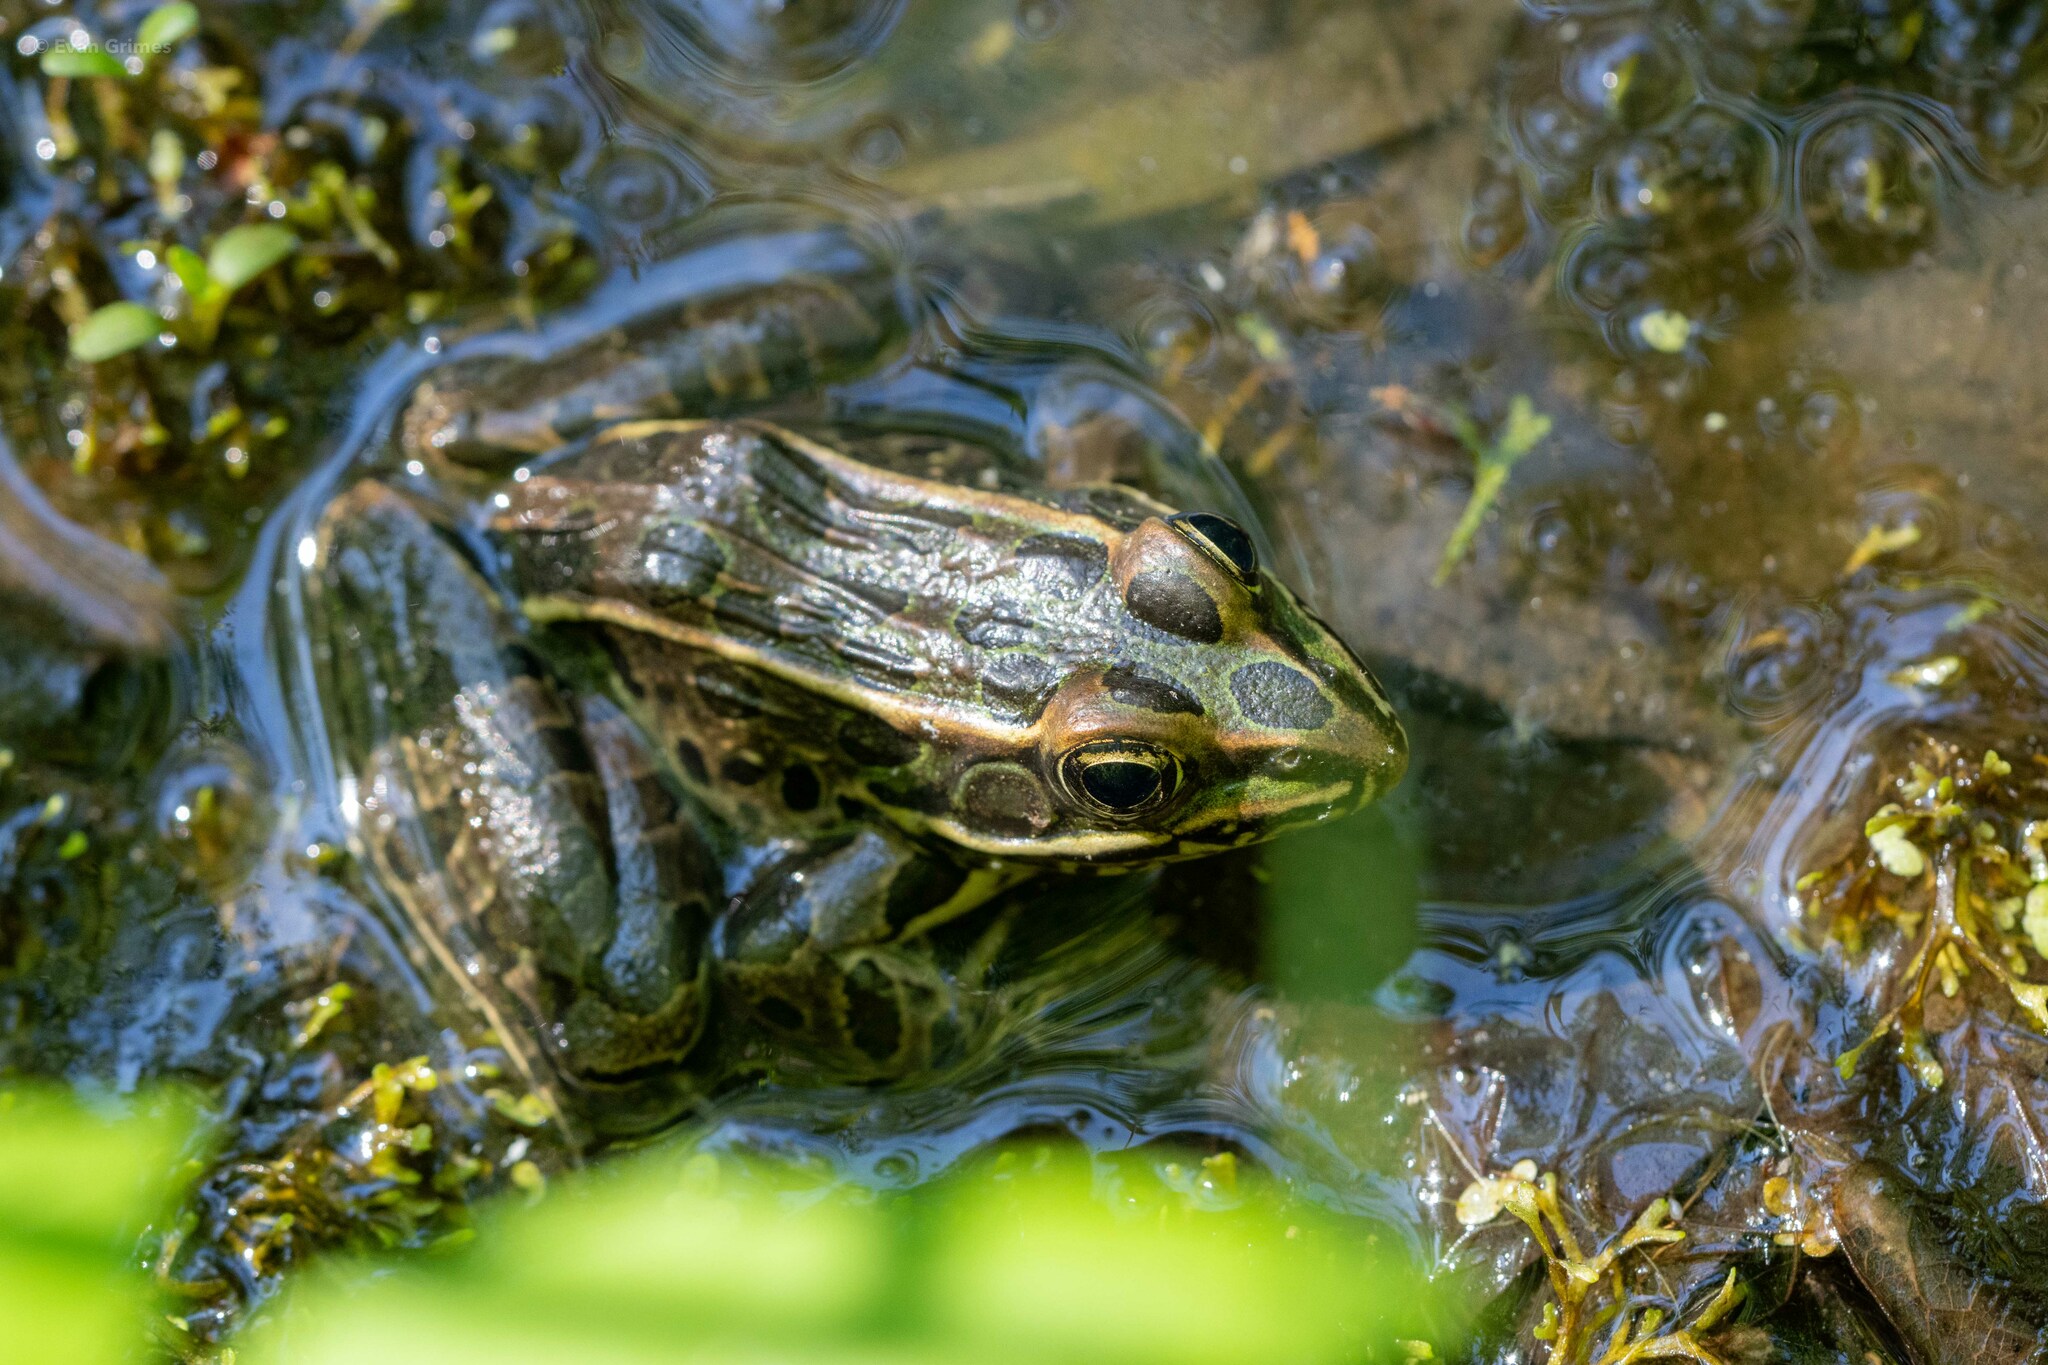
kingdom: Animalia
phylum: Chordata
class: Amphibia
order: Anura
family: Ranidae
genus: Lithobates
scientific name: Lithobates pipiens
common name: Northern leopard frog
